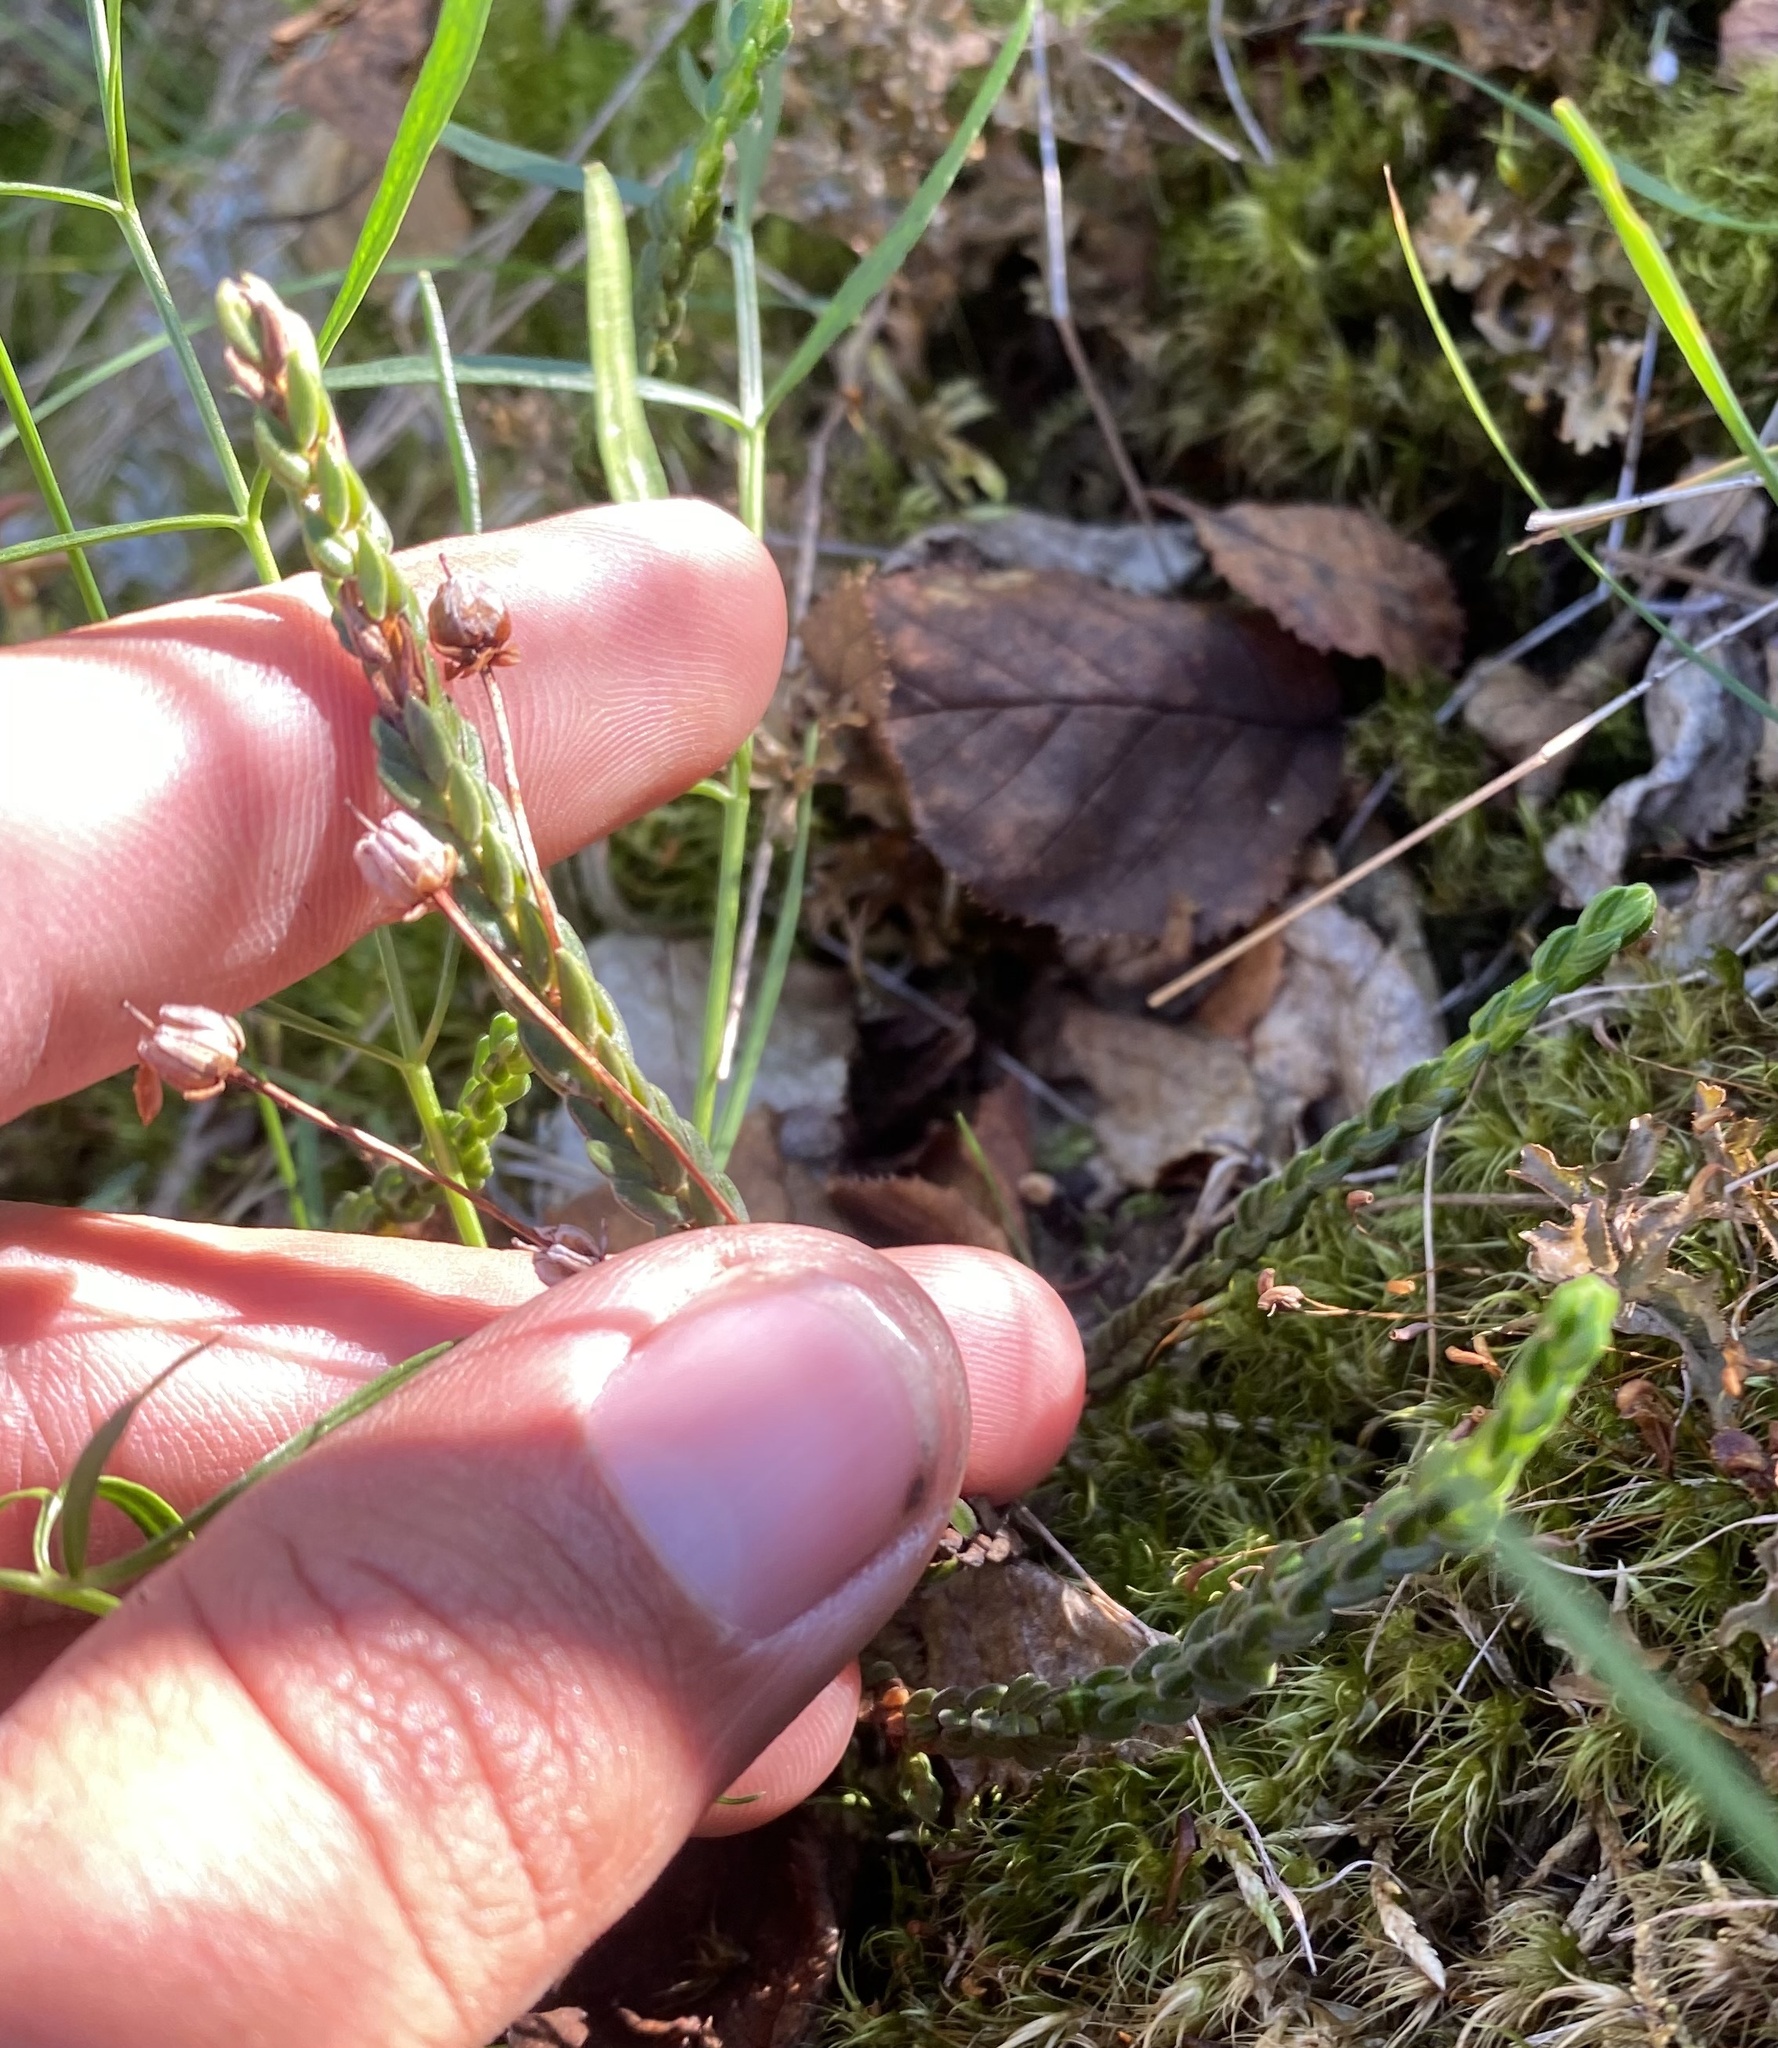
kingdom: Plantae
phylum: Tracheophyta
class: Magnoliopsida
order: Ericales
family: Ericaceae
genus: Cassiope
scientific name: Cassiope tetragona
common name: Arctic bell heather
